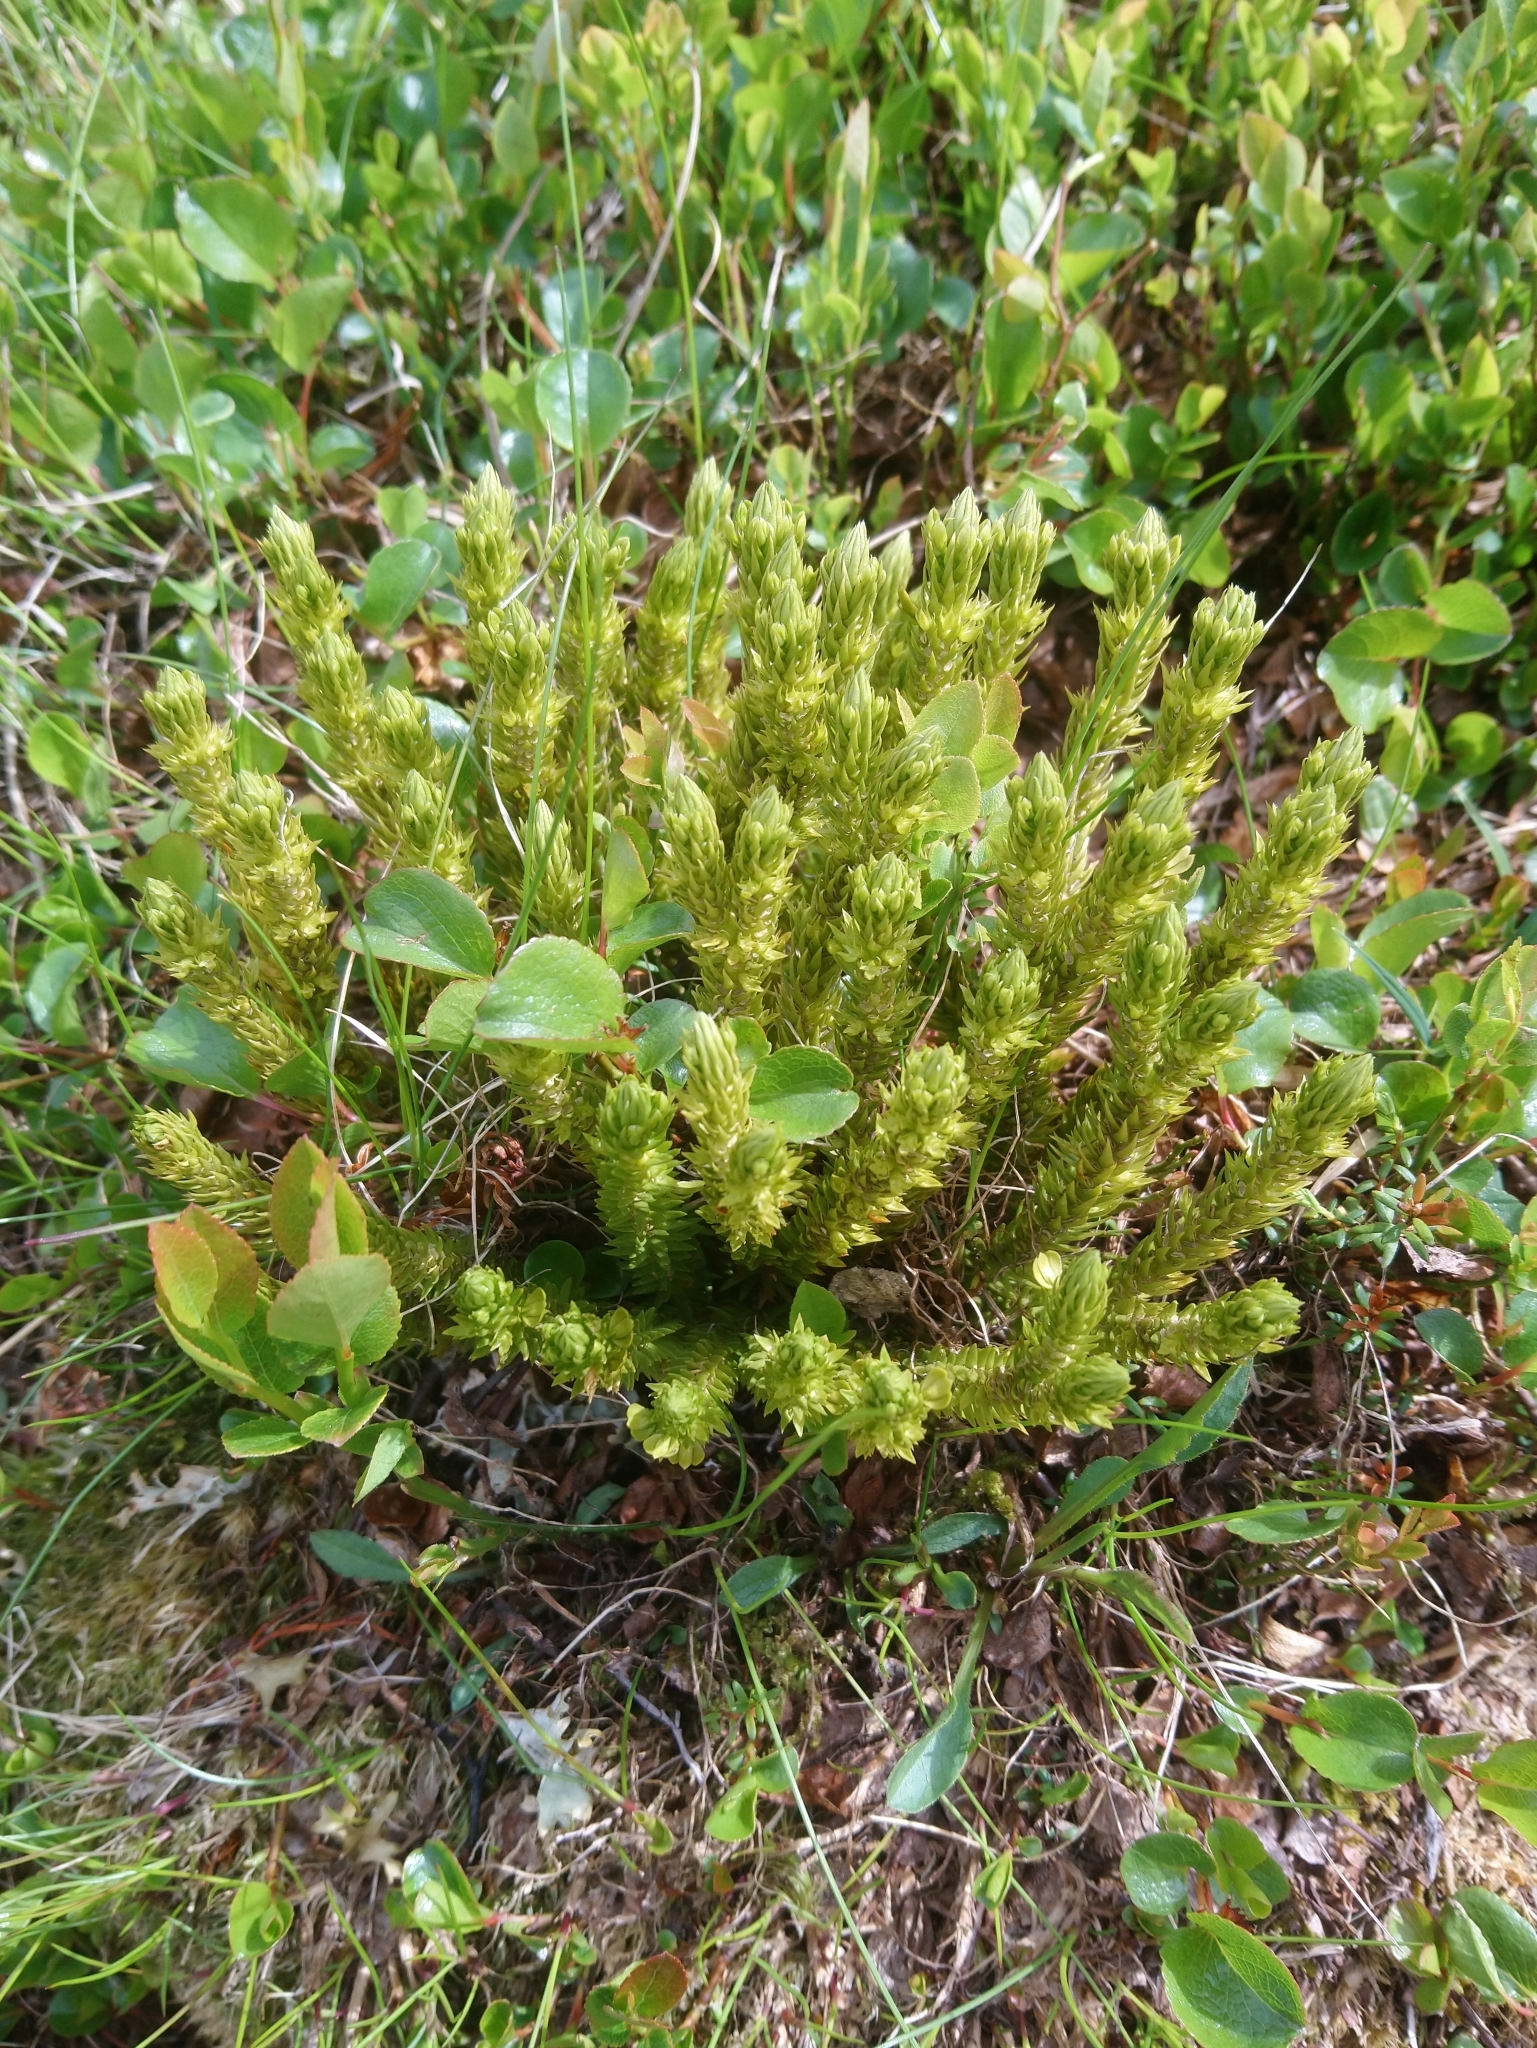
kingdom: Plantae
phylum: Tracheophyta
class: Lycopodiopsida
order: Lycopodiales
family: Lycopodiaceae
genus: Huperzia
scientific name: Huperzia selago
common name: Northern firmoss
